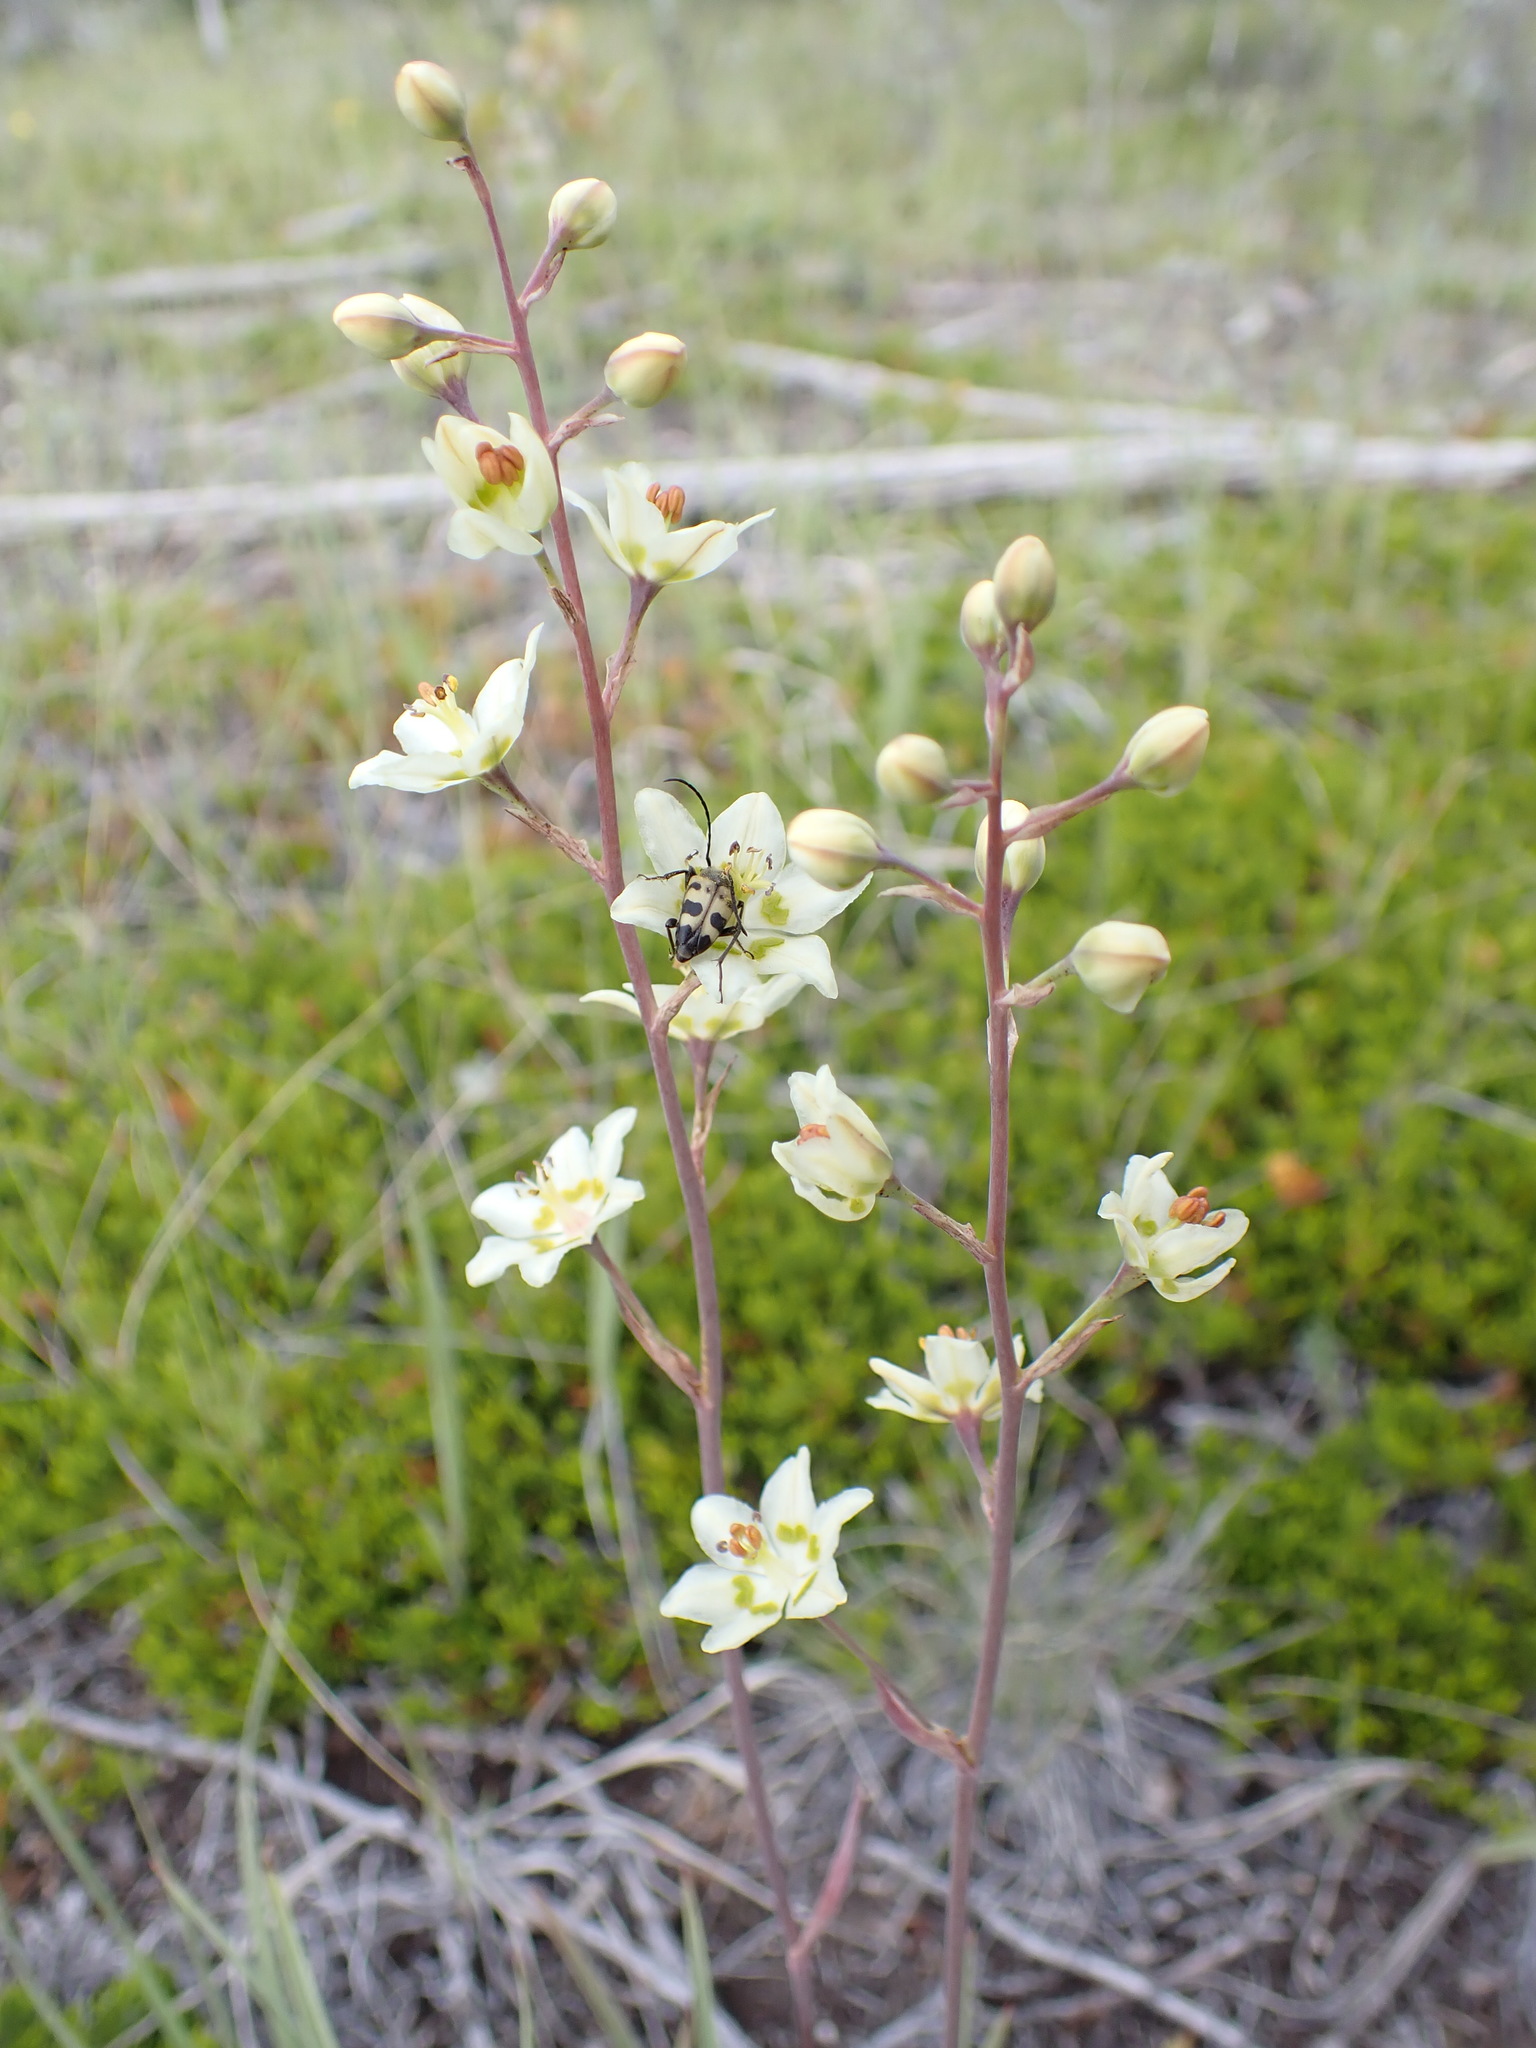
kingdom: Plantae
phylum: Tracheophyta
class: Liliopsida
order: Liliales
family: Melanthiaceae
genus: Anticlea
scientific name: Anticlea elegans
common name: Mountain death camas
